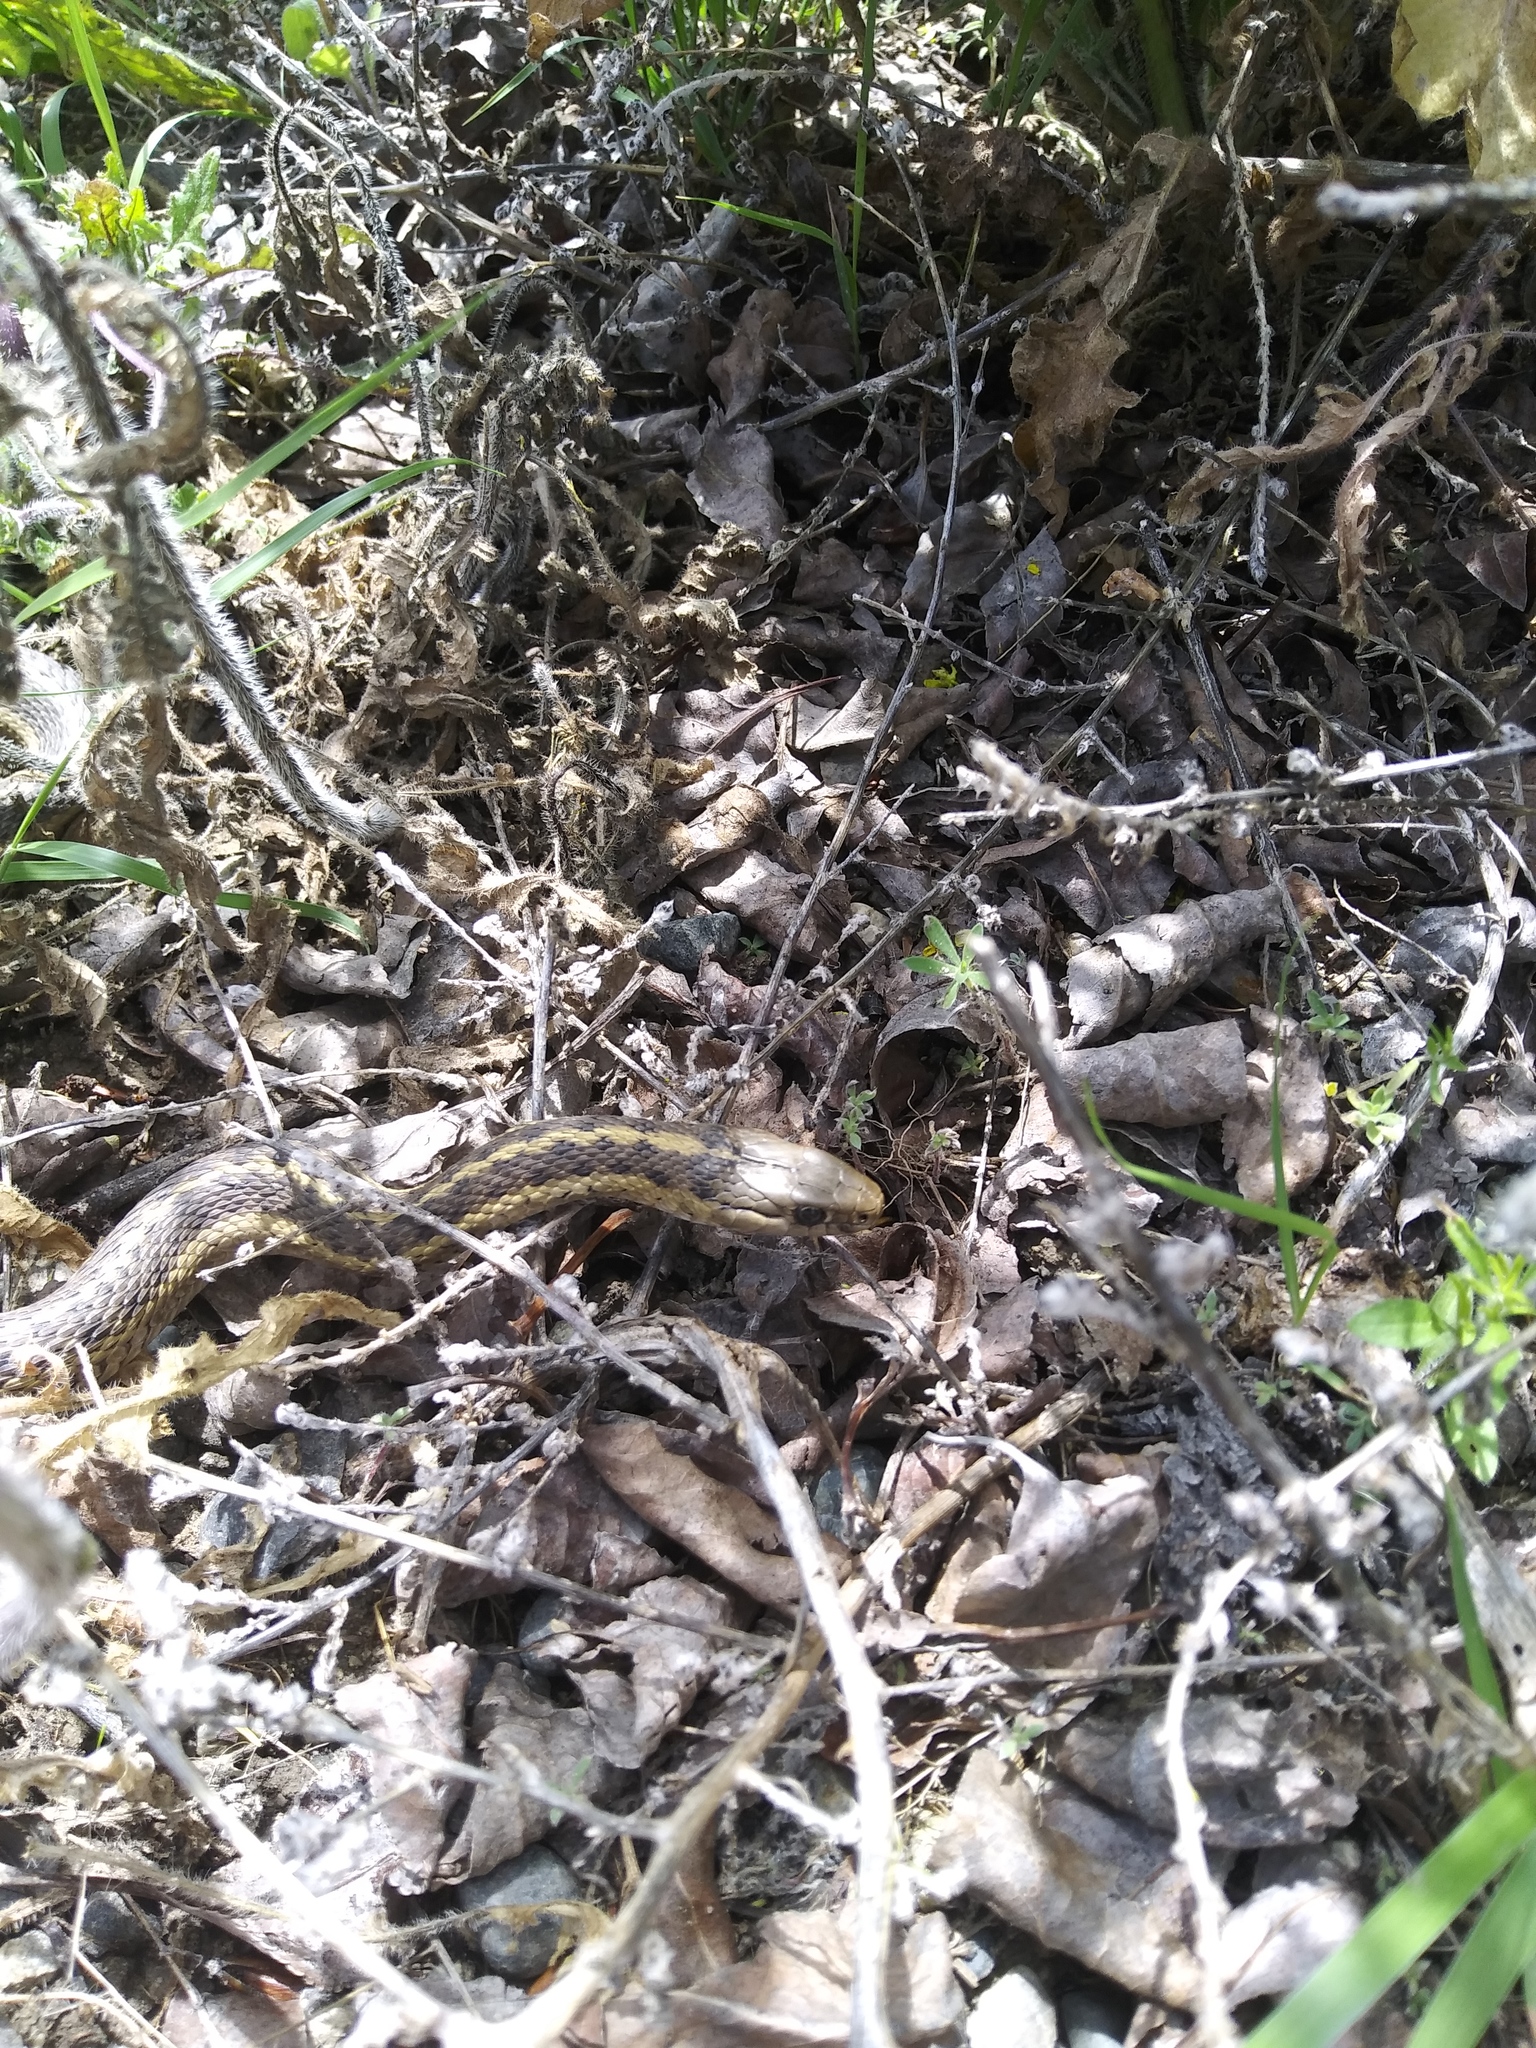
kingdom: Animalia
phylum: Chordata
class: Squamata
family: Colubridae
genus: Thamnophis
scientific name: Thamnophis elegans
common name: Western terrestrial garter snake
